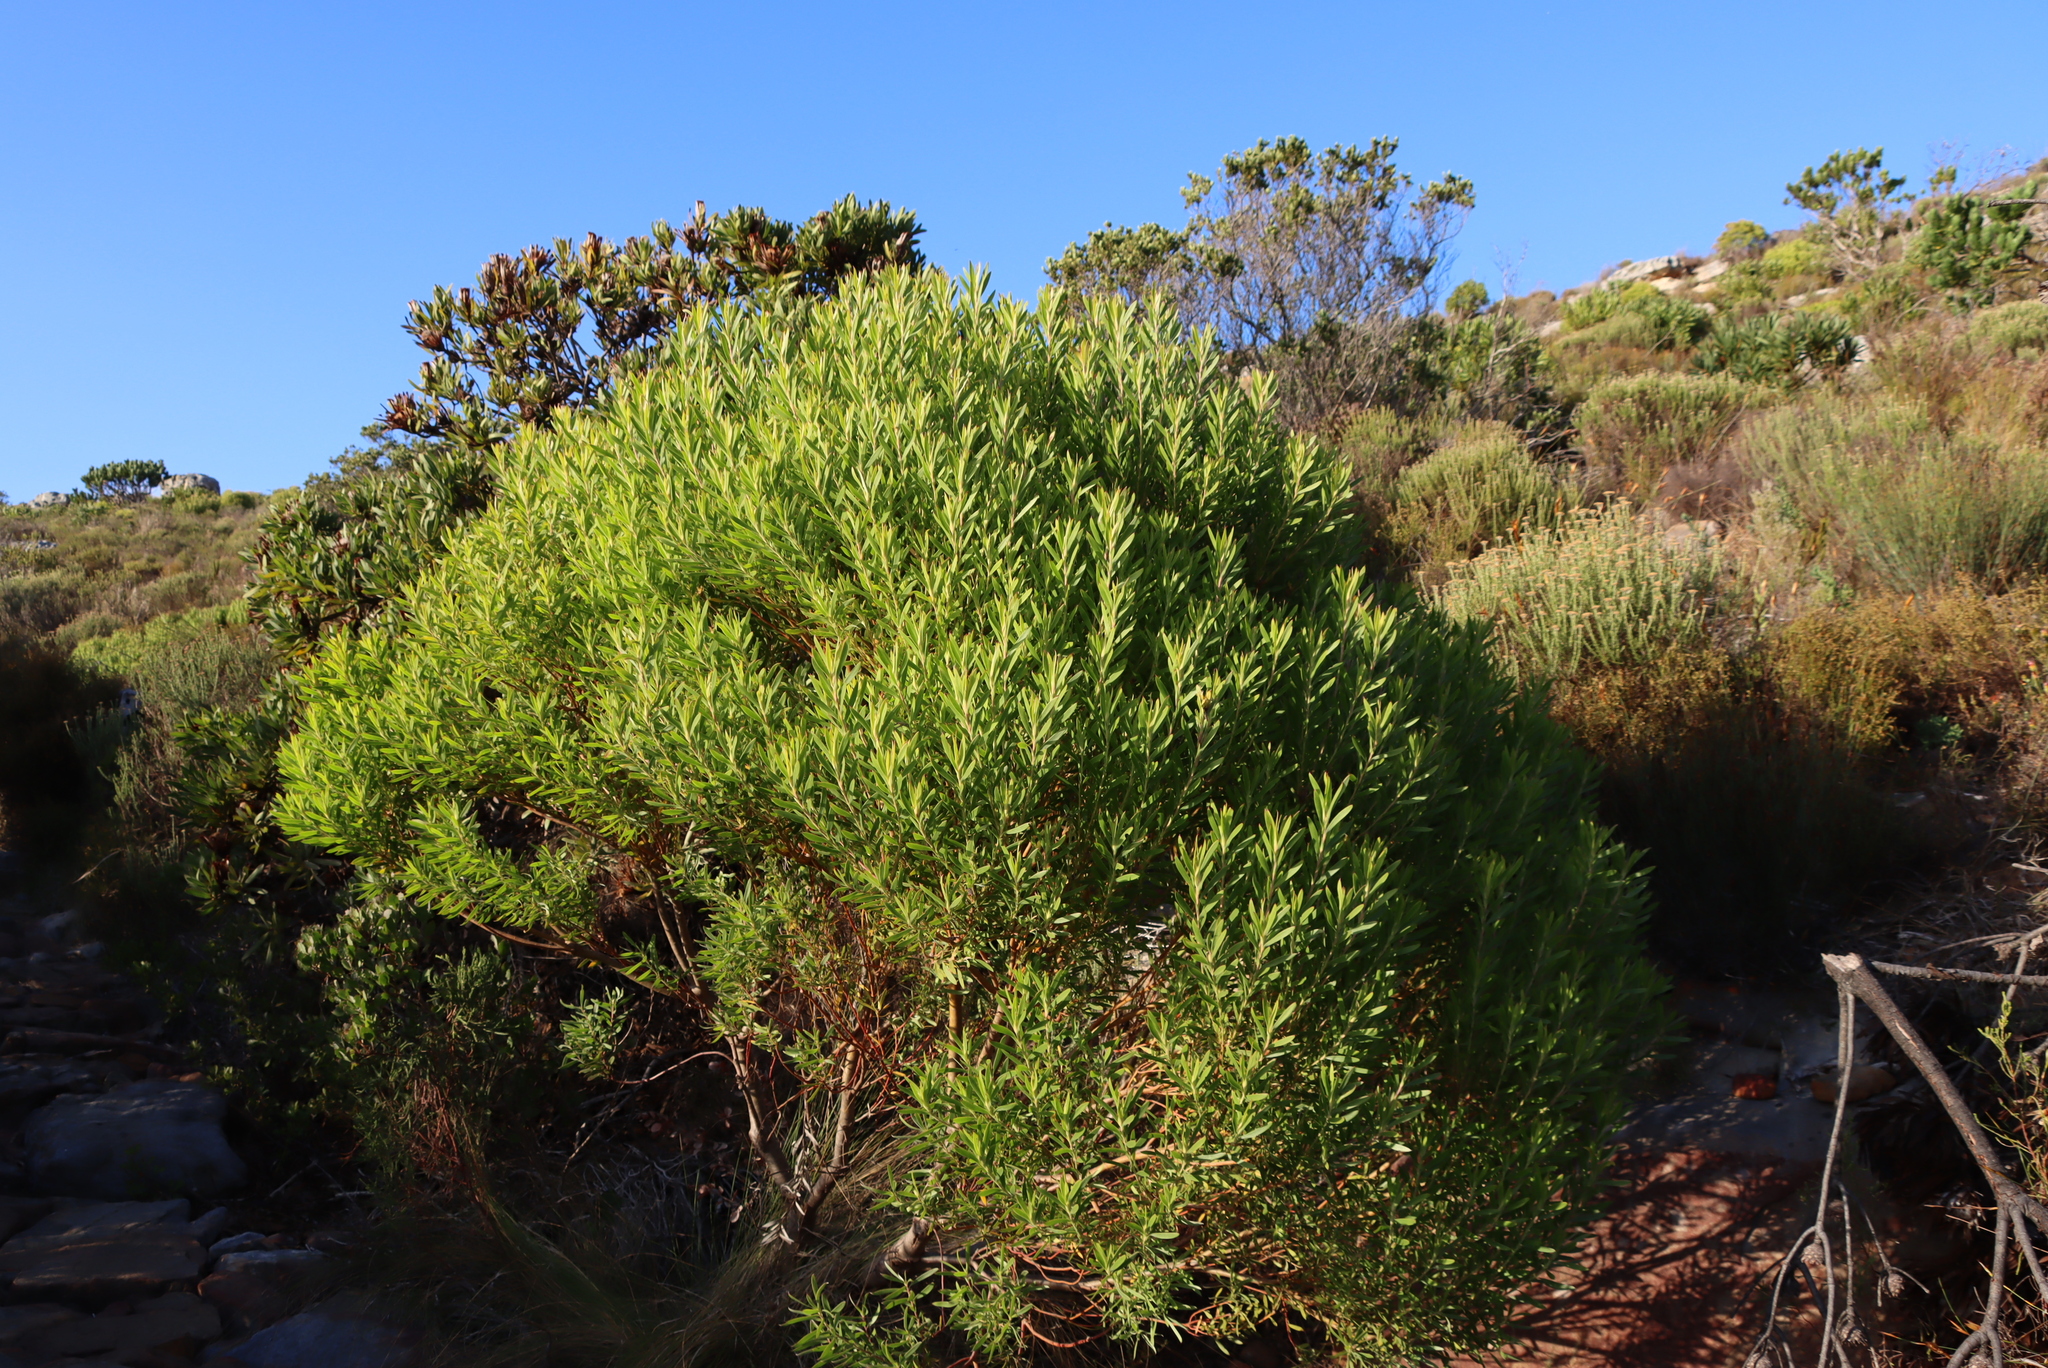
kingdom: Plantae
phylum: Tracheophyta
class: Magnoliopsida
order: Proteales
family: Proteaceae
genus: Leucadendron
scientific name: Leucadendron xanthoconus
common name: Sickle-leaf conebush
